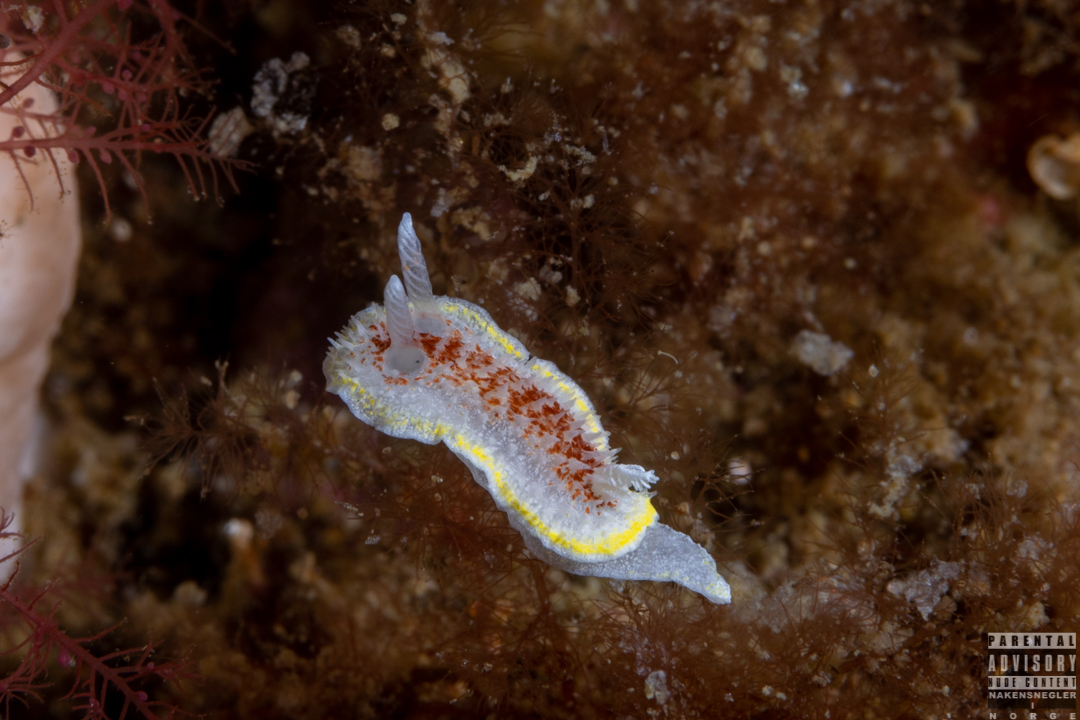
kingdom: Animalia
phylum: Mollusca
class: Gastropoda
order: Nudibranchia
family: Calycidorididae
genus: Diaphorodoris
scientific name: Diaphorodoris luteocincta
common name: Fried egg nudibranch
